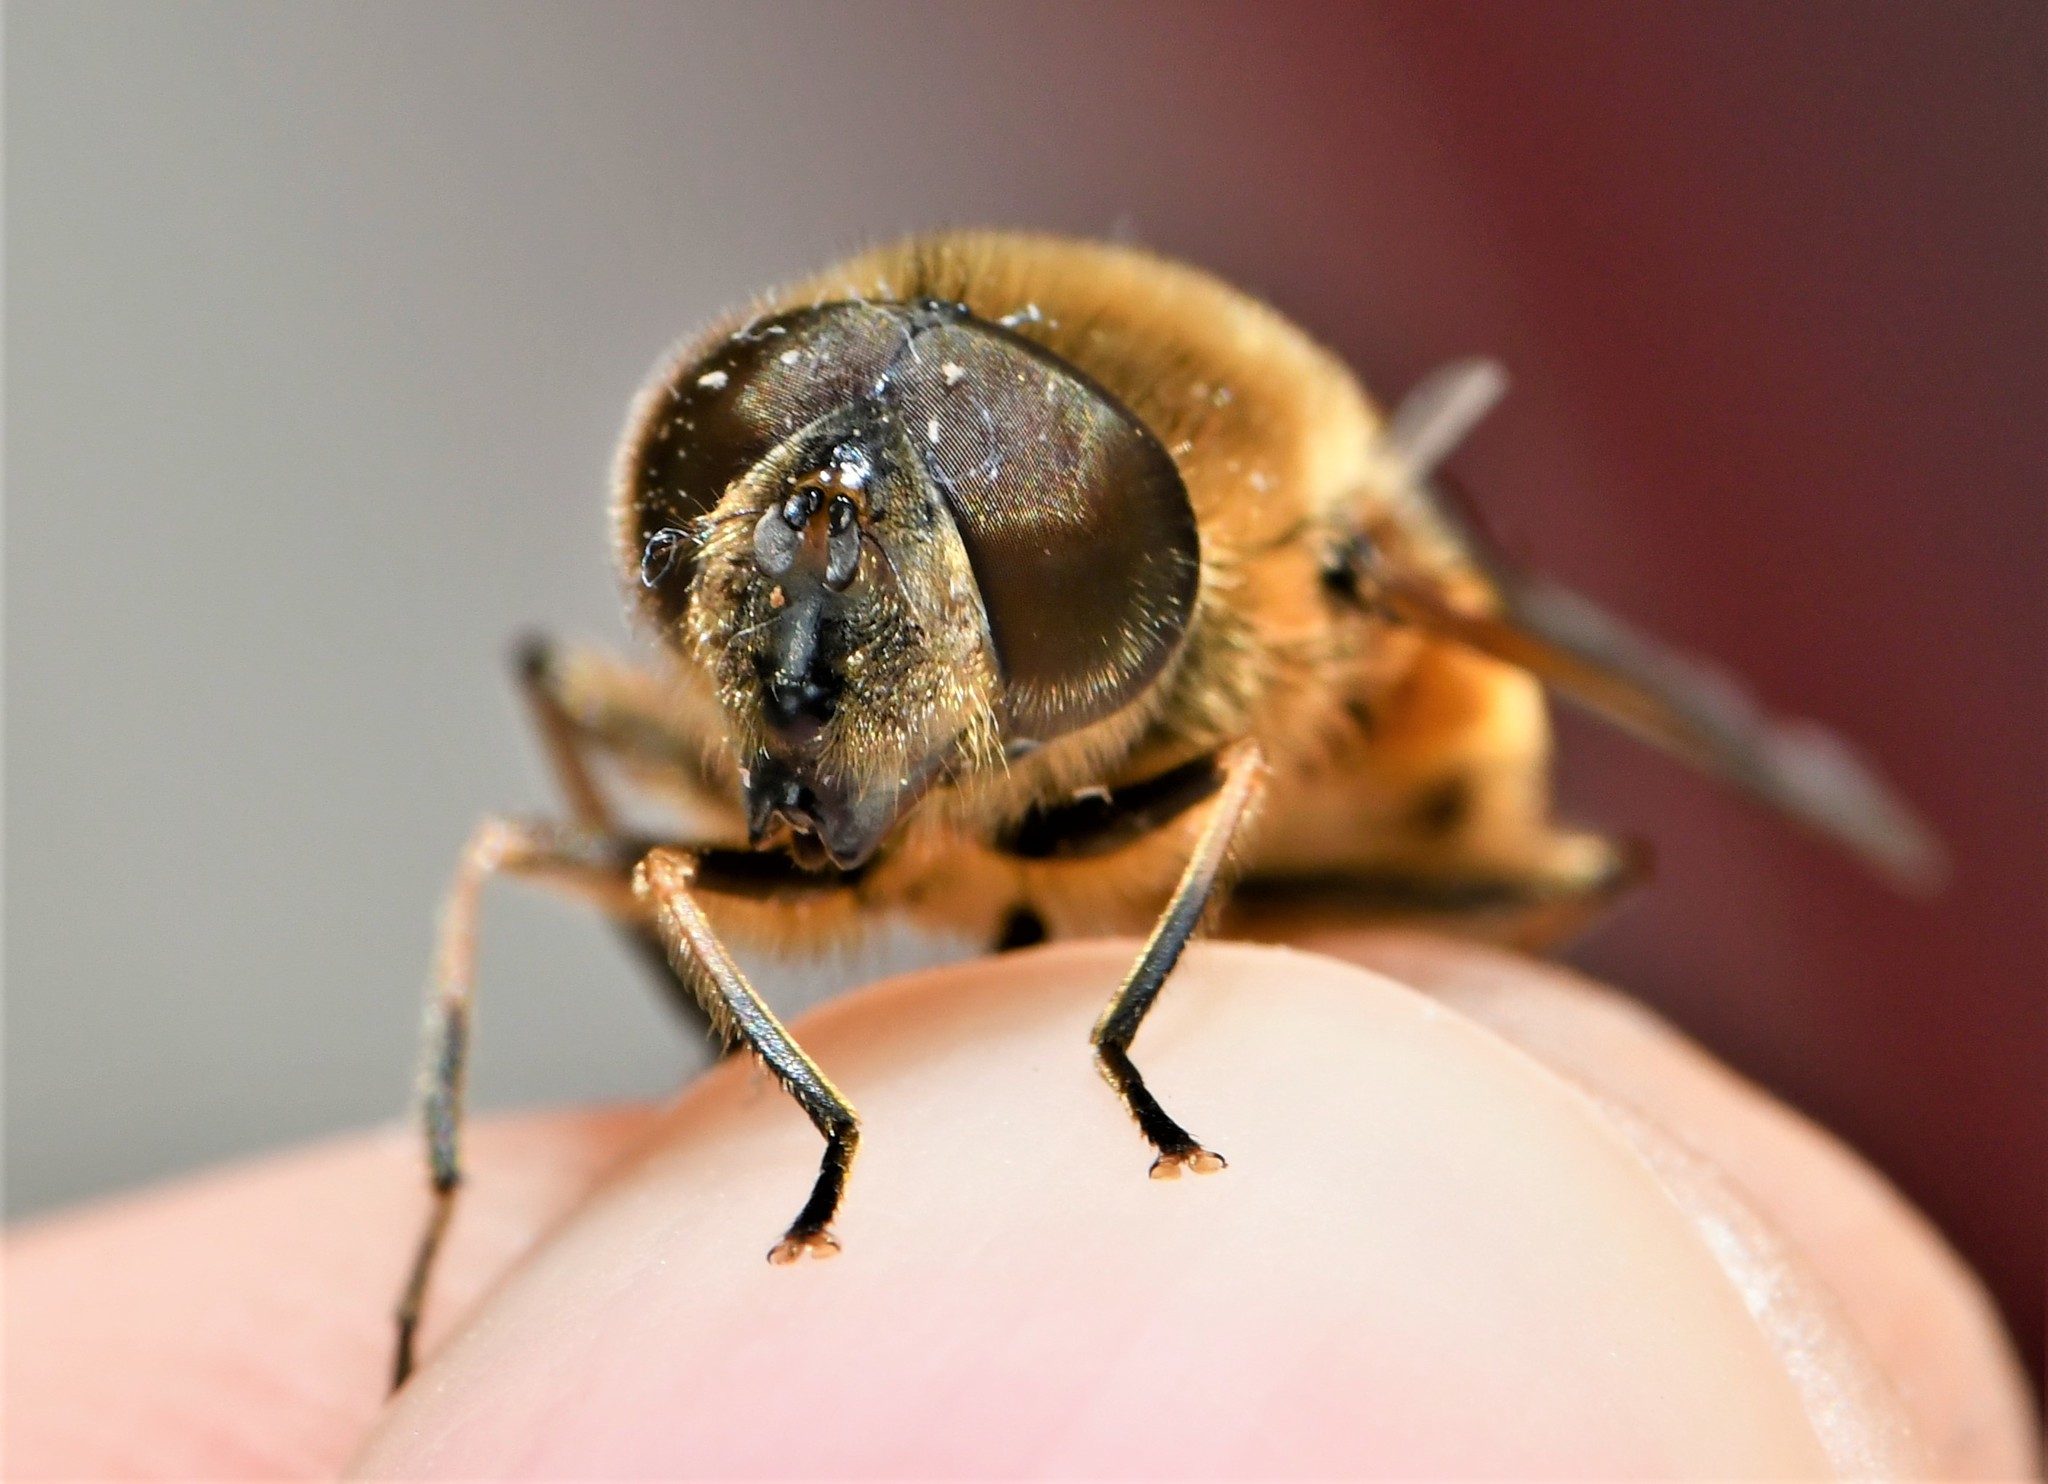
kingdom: Animalia
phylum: Arthropoda
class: Insecta
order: Diptera
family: Syrphidae
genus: Eristalis
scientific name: Eristalis pertinax
